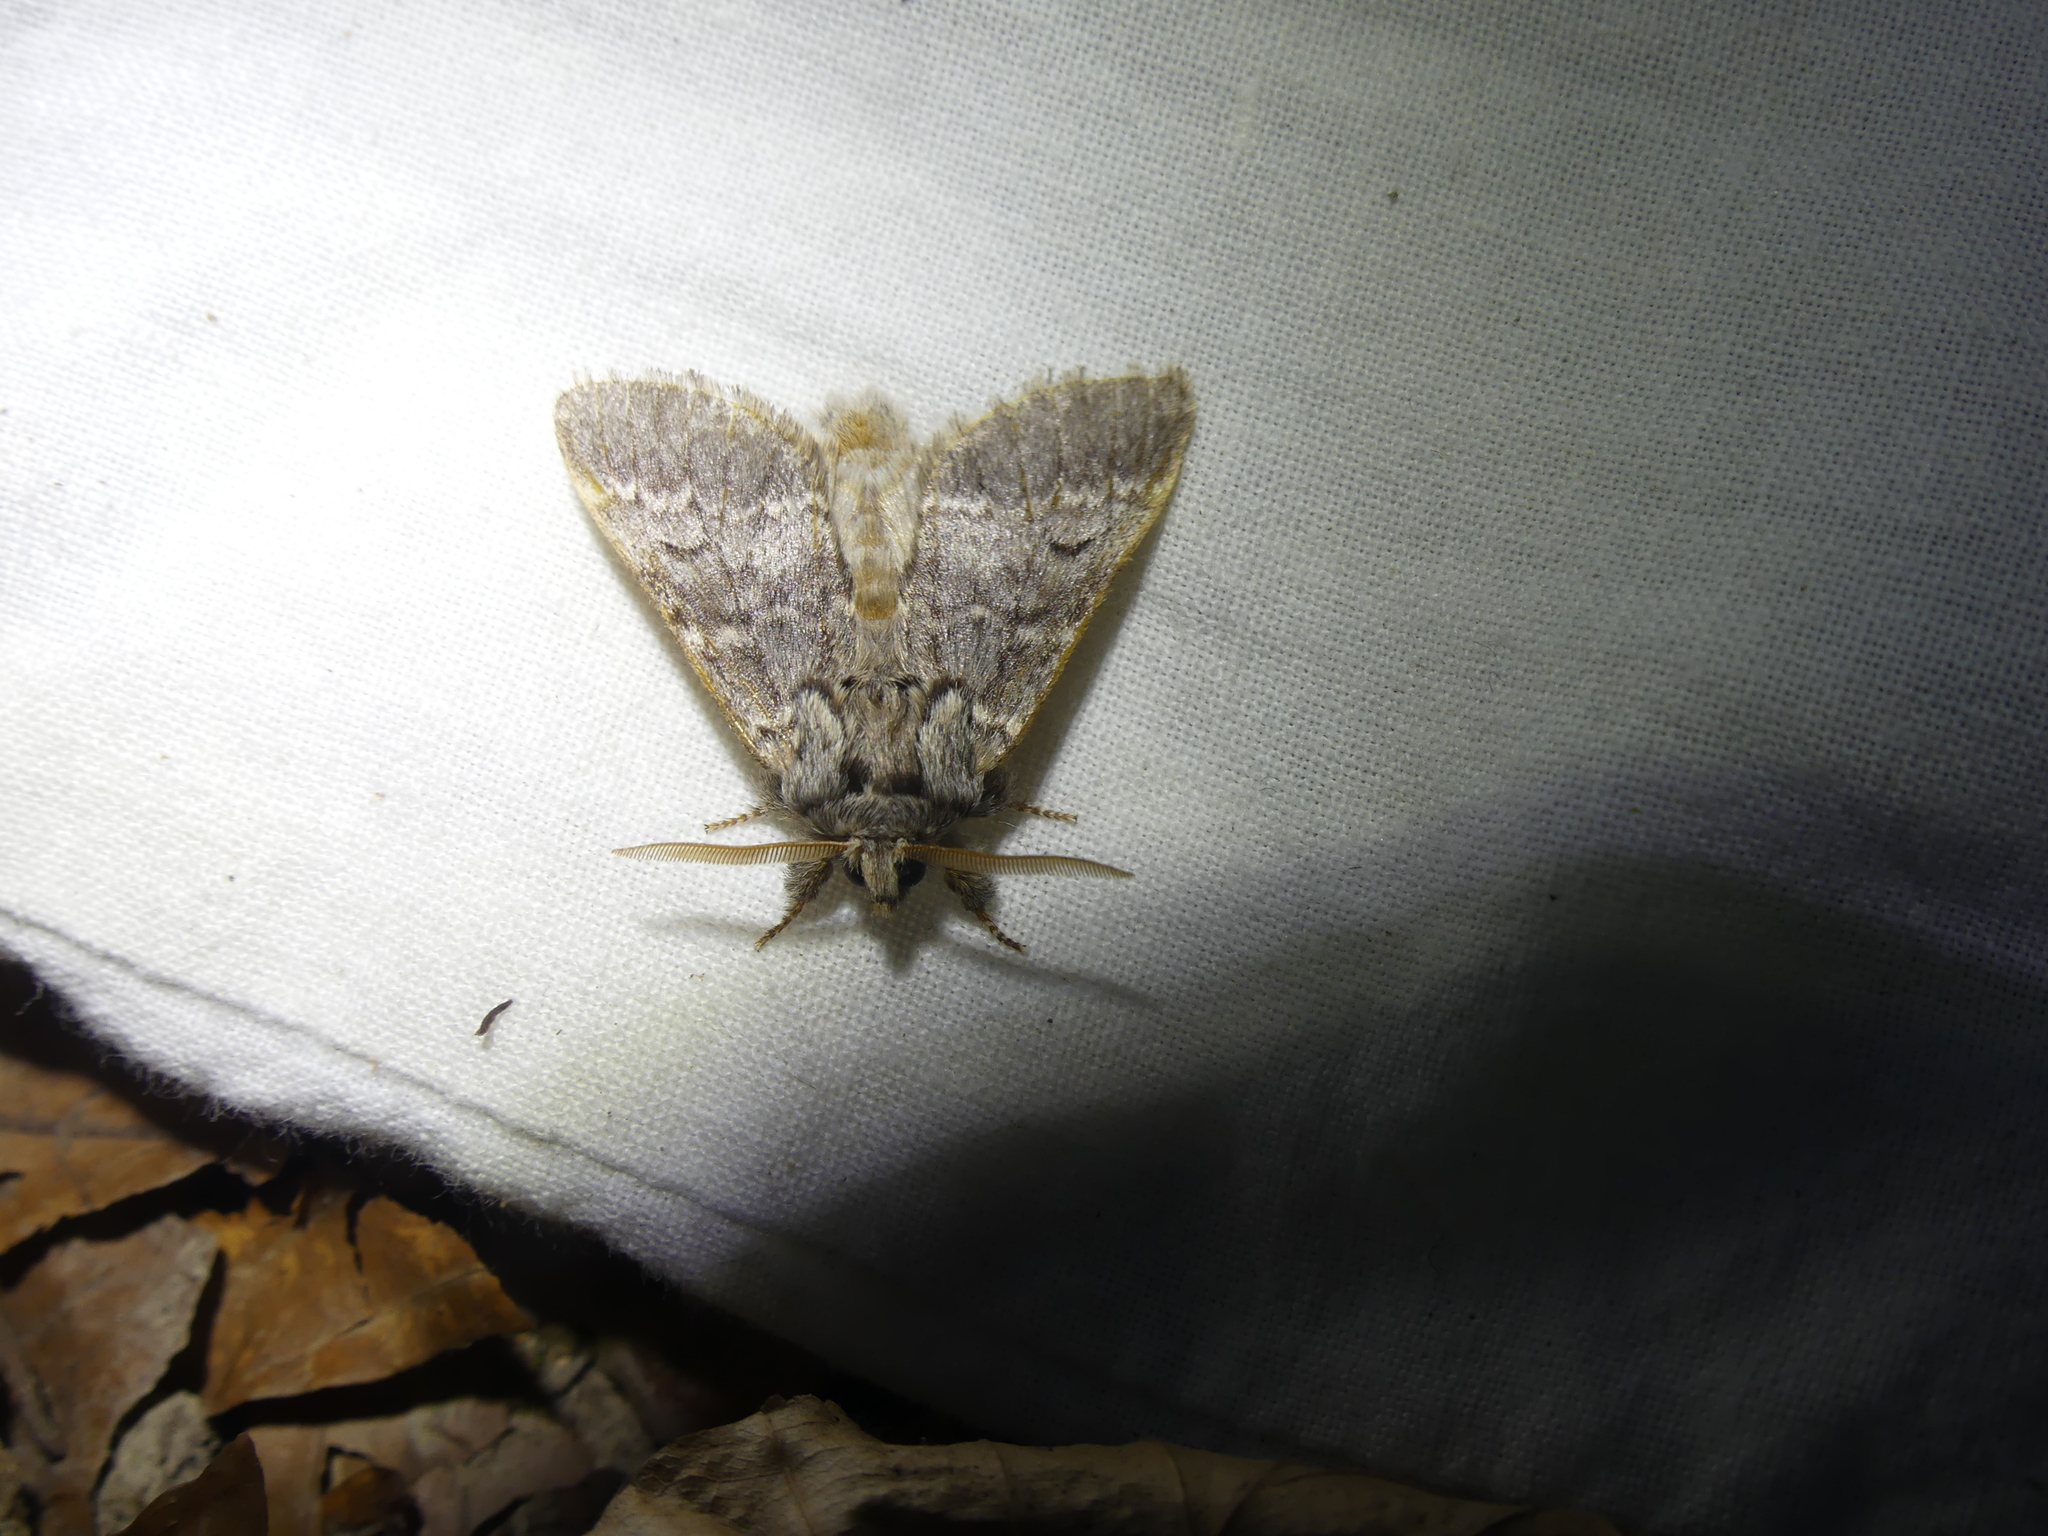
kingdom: Animalia
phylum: Arthropoda
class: Insecta
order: Lepidoptera
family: Notodontidae
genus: Drymonia
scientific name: Drymonia ruficornis
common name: Lunar marbled brown
